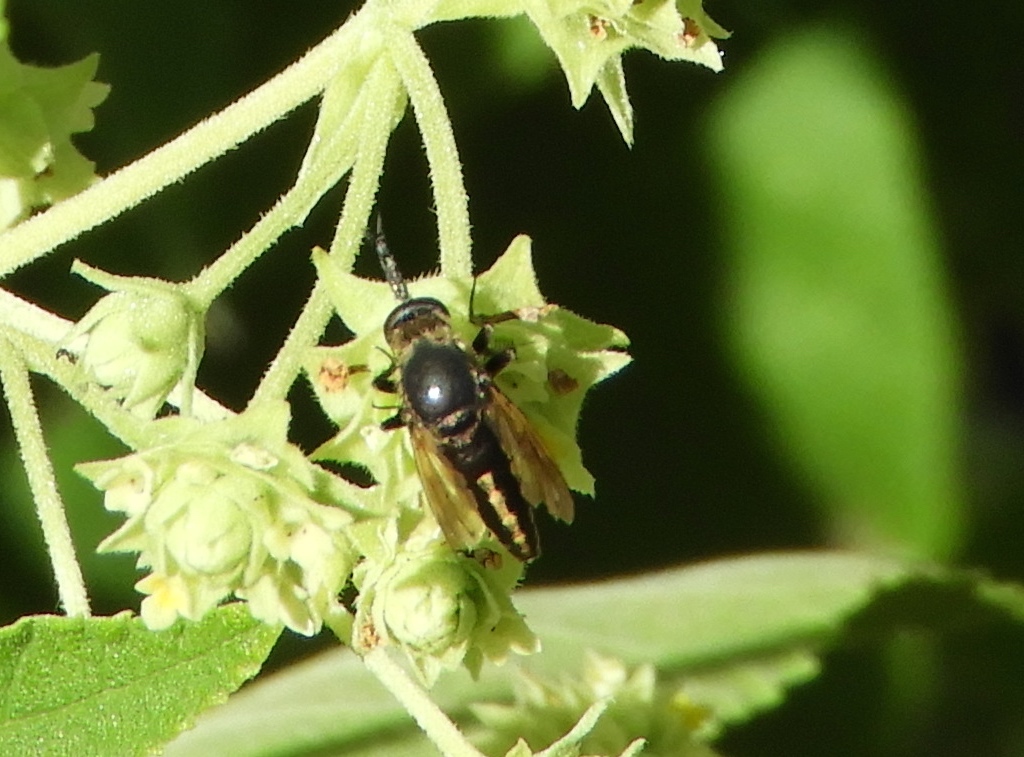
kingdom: Animalia
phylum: Arthropoda
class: Insecta
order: Diptera
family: Bombyliidae
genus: Toxophora
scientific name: Toxophora virgata
